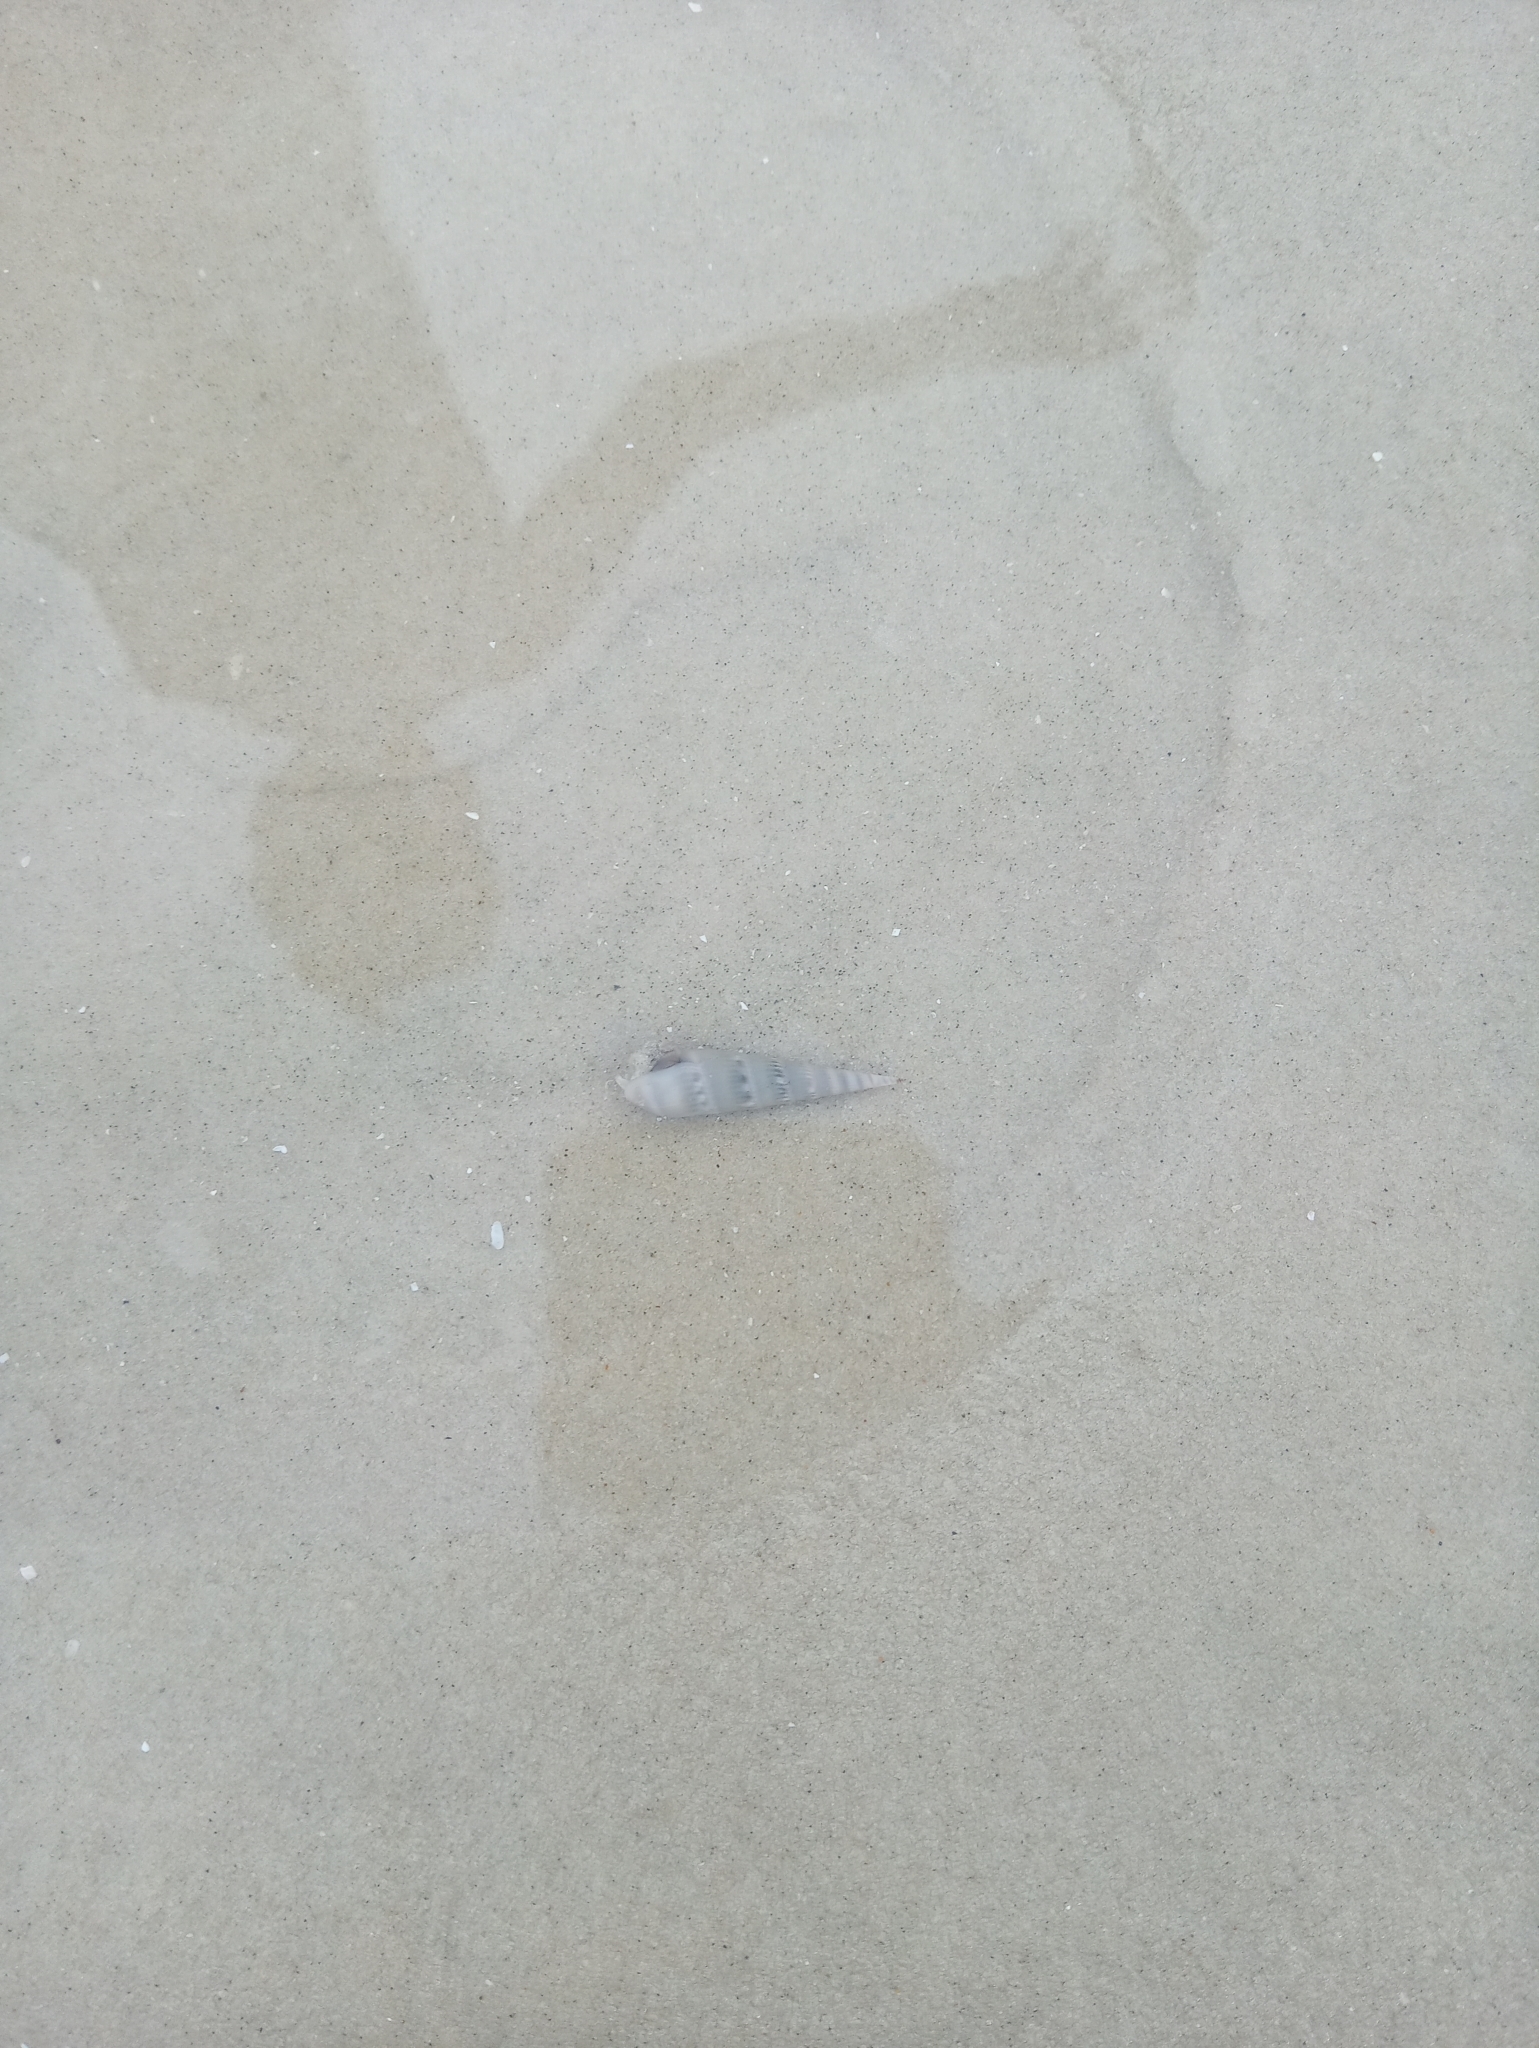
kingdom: Animalia
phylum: Mollusca
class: Gastropoda
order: Neogastropoda
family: Terebridae
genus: Hastula
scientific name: Hastula cinerea
